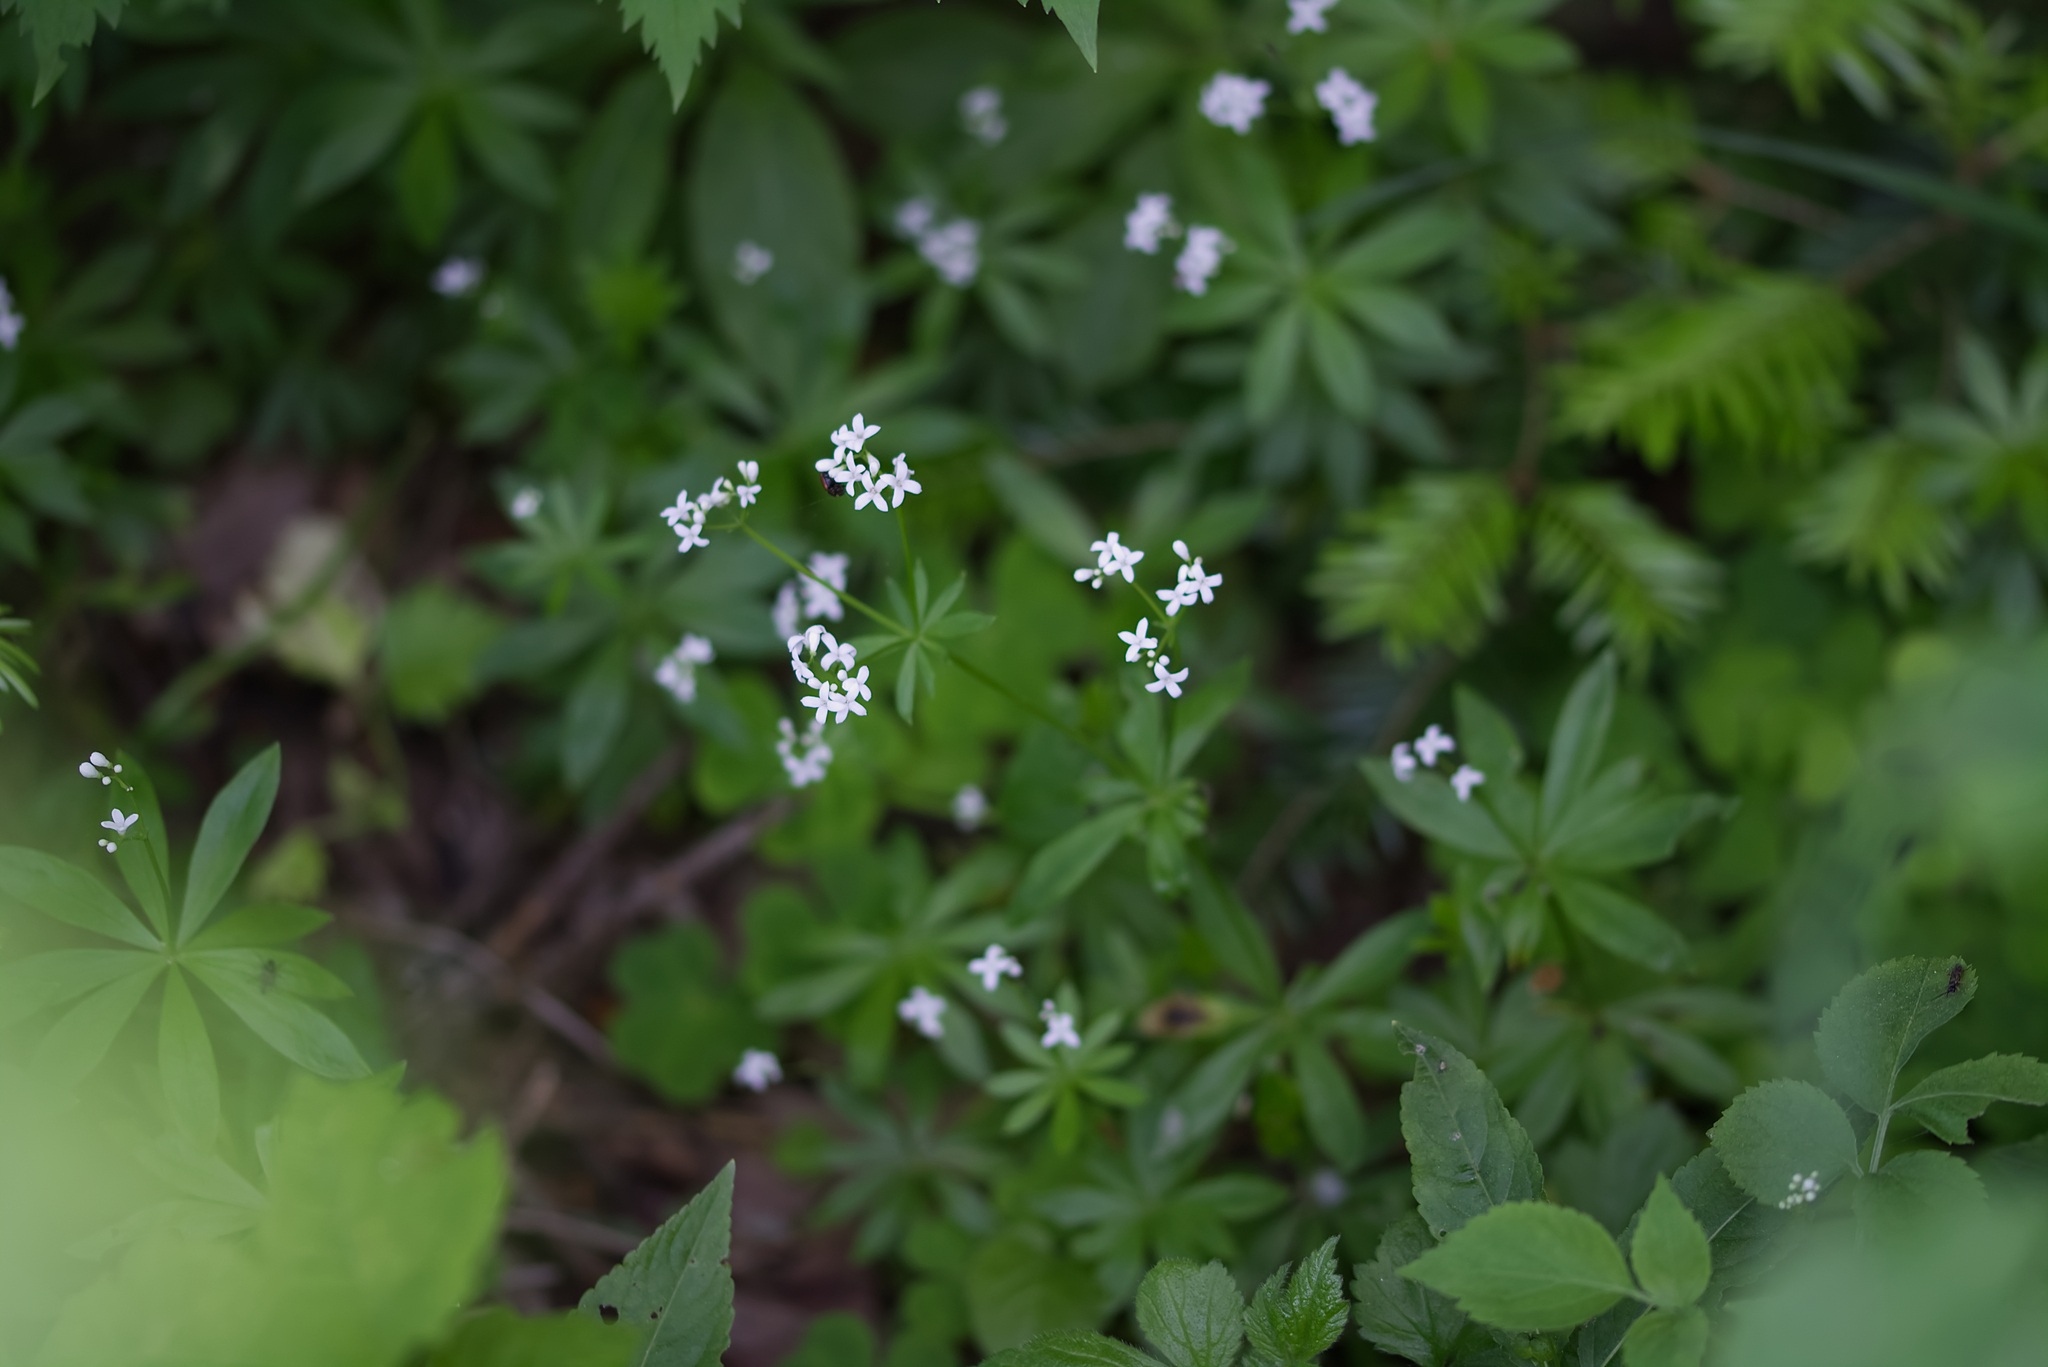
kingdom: Plantae
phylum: Tracheophyta
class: Magnoliopsida
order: Gentianales
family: Rubiaceae
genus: Galium
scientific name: Galium odoratum
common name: Sweet woodruff
